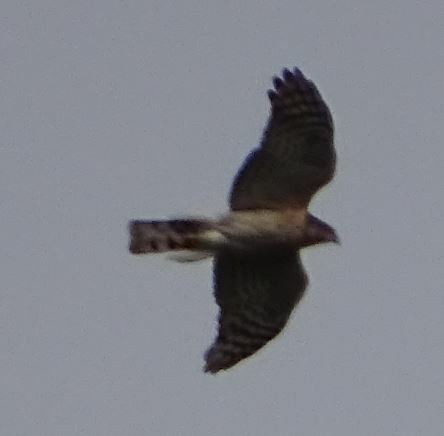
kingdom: Animalia
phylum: Chordata
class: Aves
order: Accipitriformes
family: Accipitridae
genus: Accipiter
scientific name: Accipiter nisus
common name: Eurasian sparrowhawk
